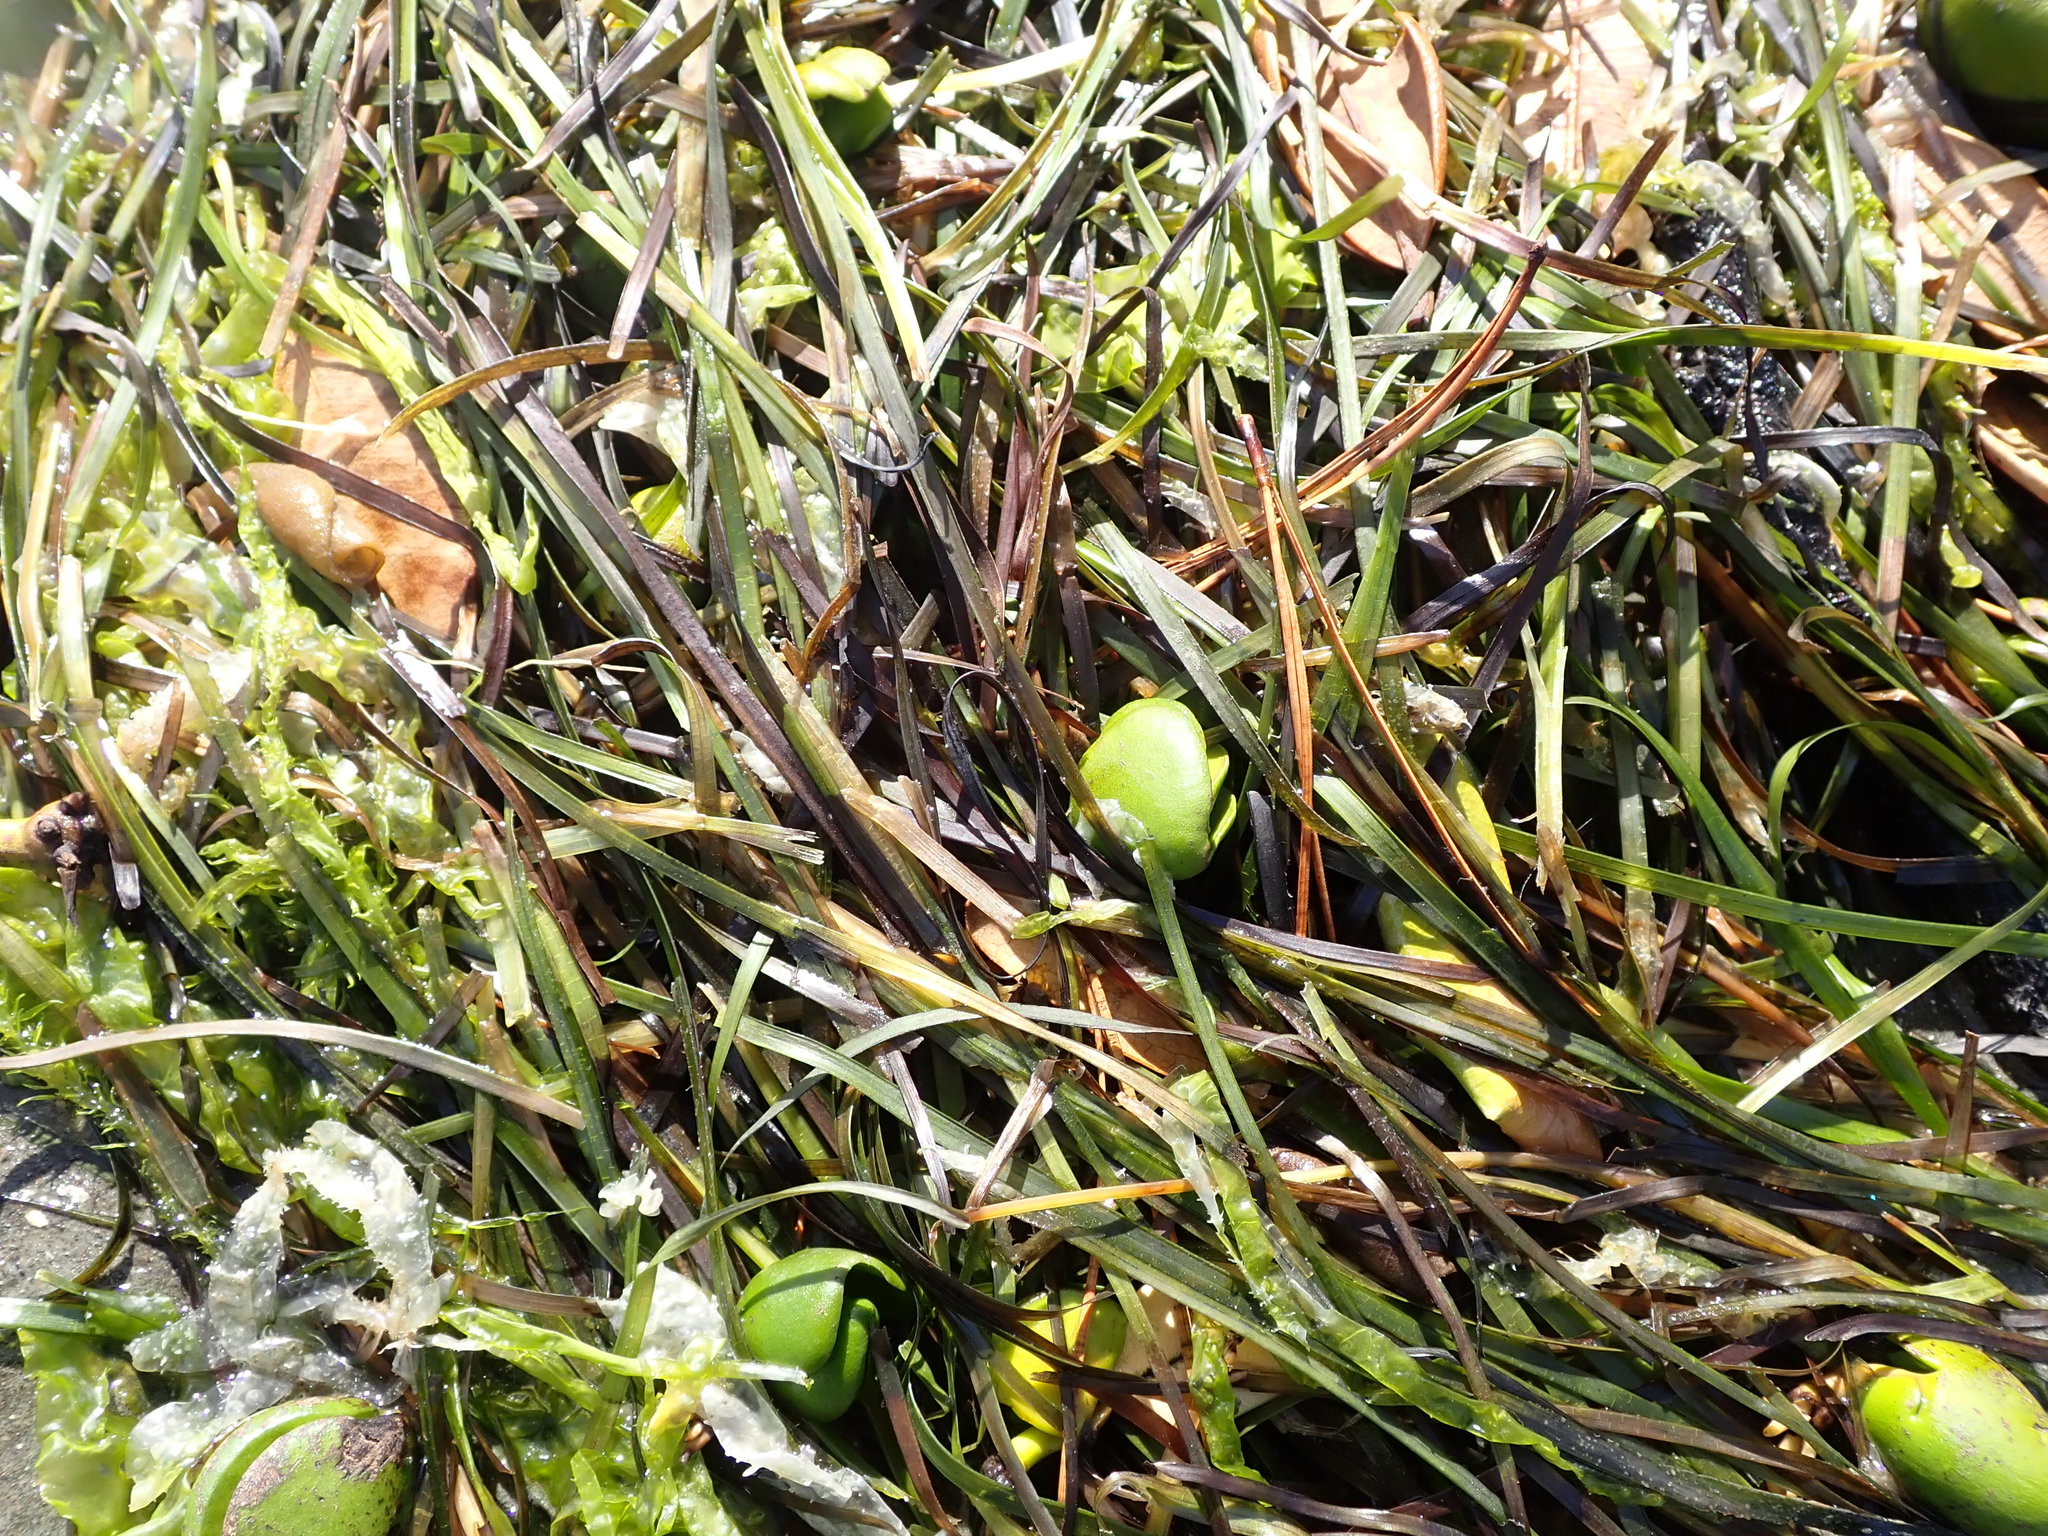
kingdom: Plantae
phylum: Tracheophyta
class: Liliopsida
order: Alismatales
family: Zosteraceae
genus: Zostera
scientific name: Zostera novazelandica
